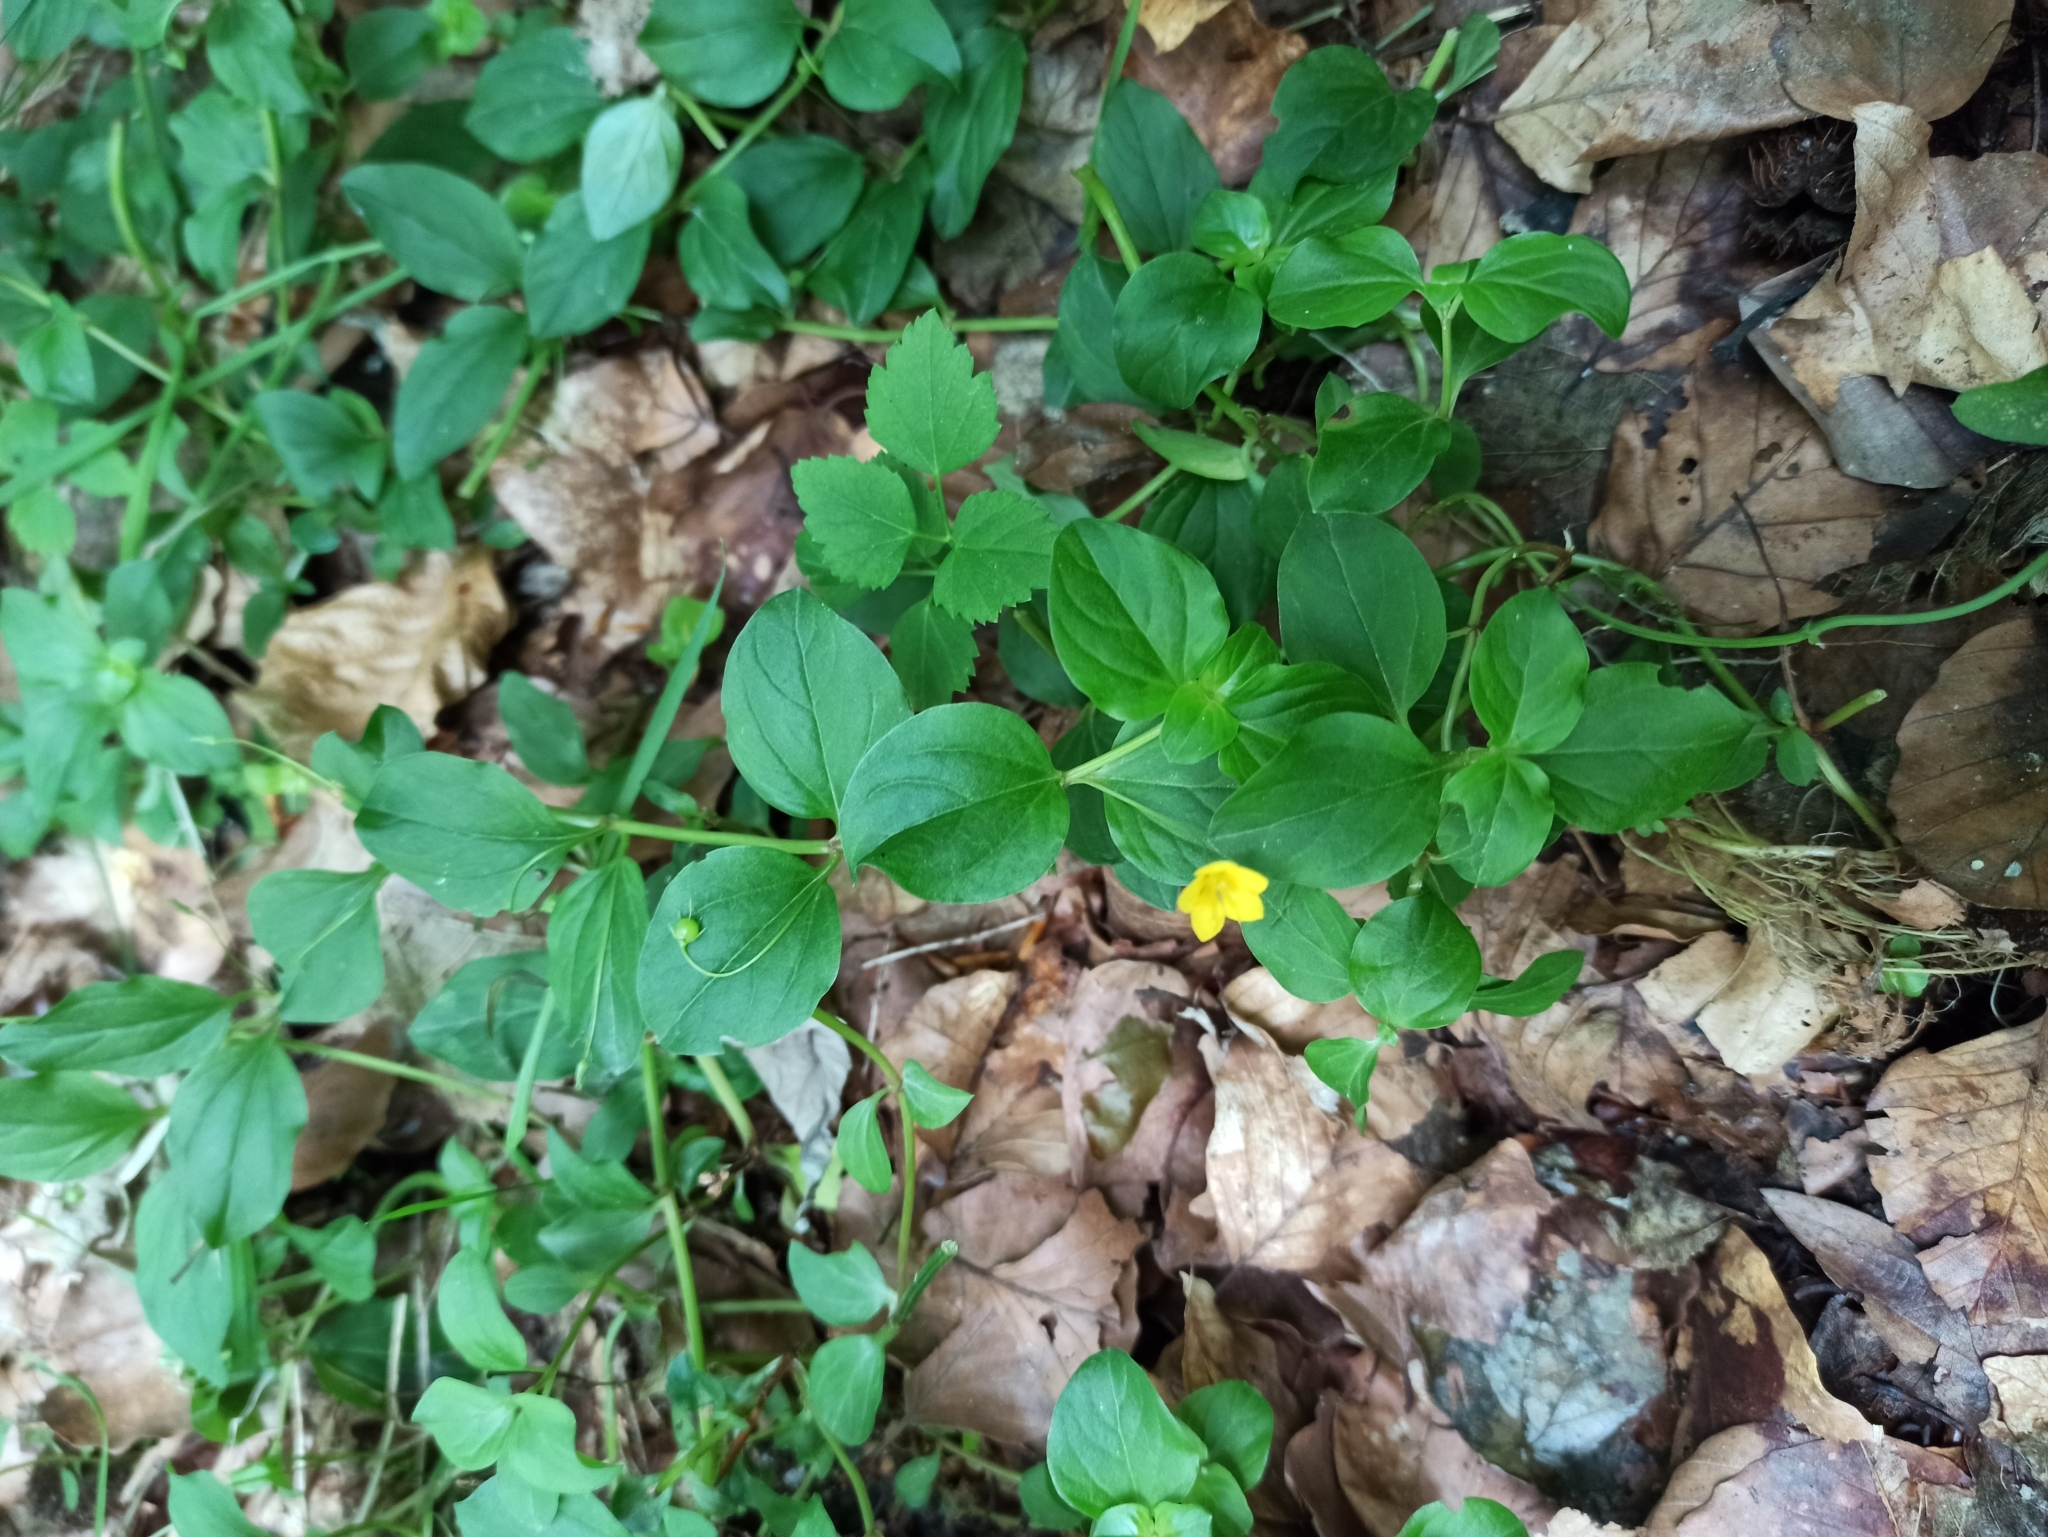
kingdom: Plantae
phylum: Tracheophyta
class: Magnoliopsida
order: Ericales
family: Primulaceae
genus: Lysimachia
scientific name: Lysimachia nemorum
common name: Yellow pimpernel
